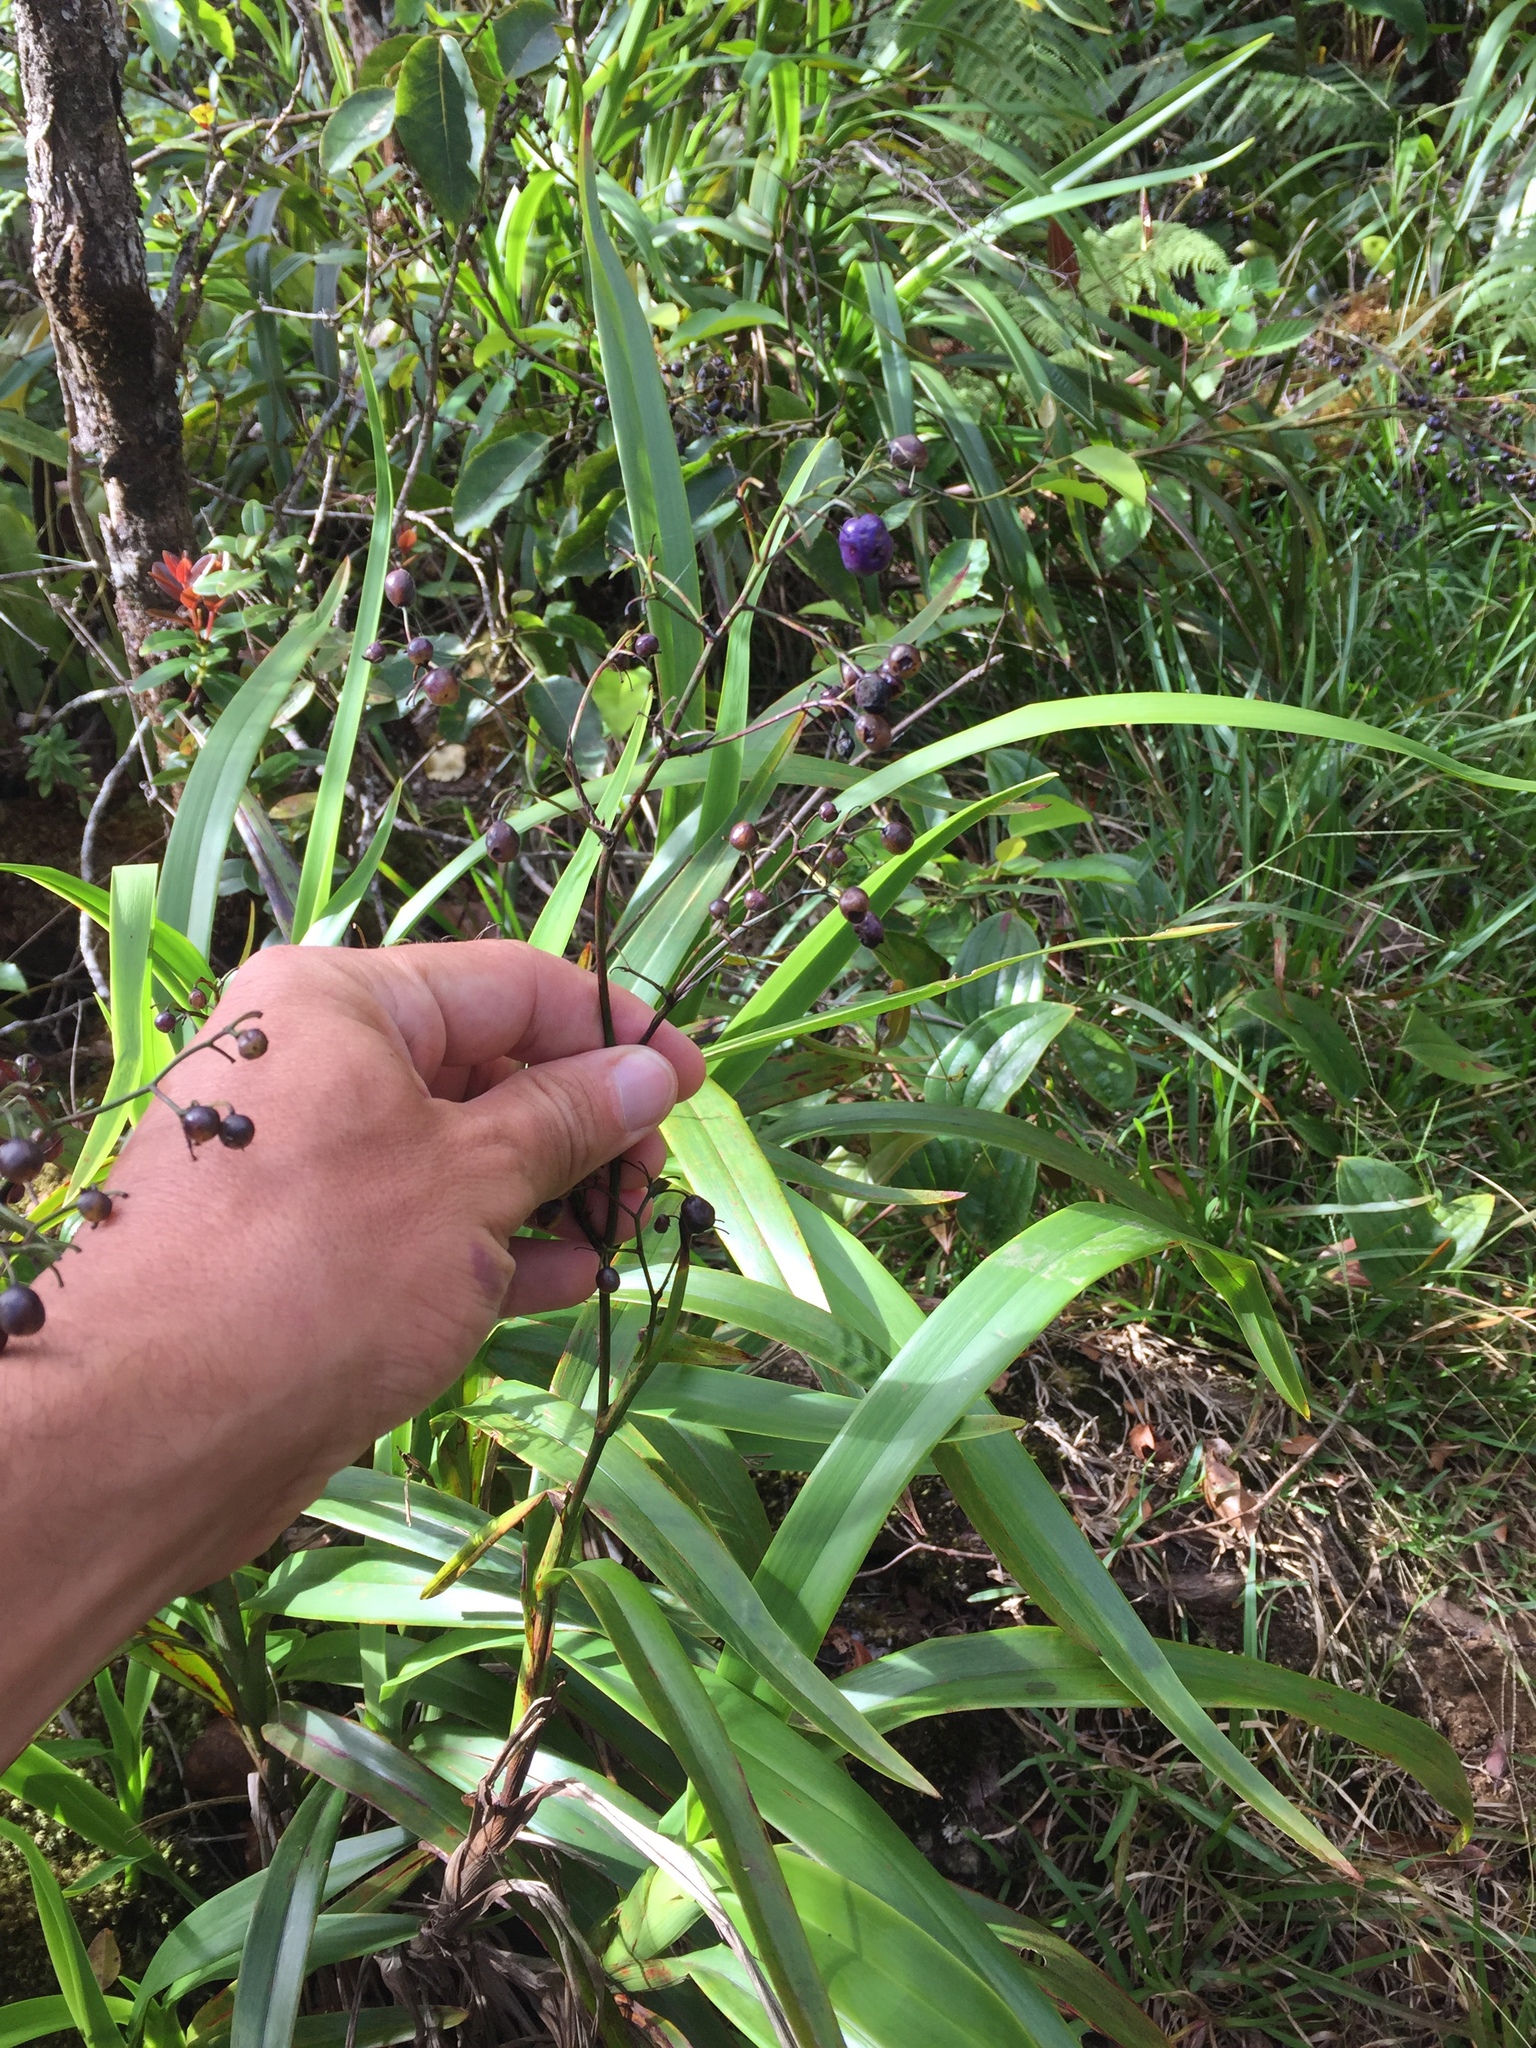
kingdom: Plantae
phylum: Tracheophyta
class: Liliopsida
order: Asparagales
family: Asphodelaceae
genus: Dianella
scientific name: Dianella sandwicensis
